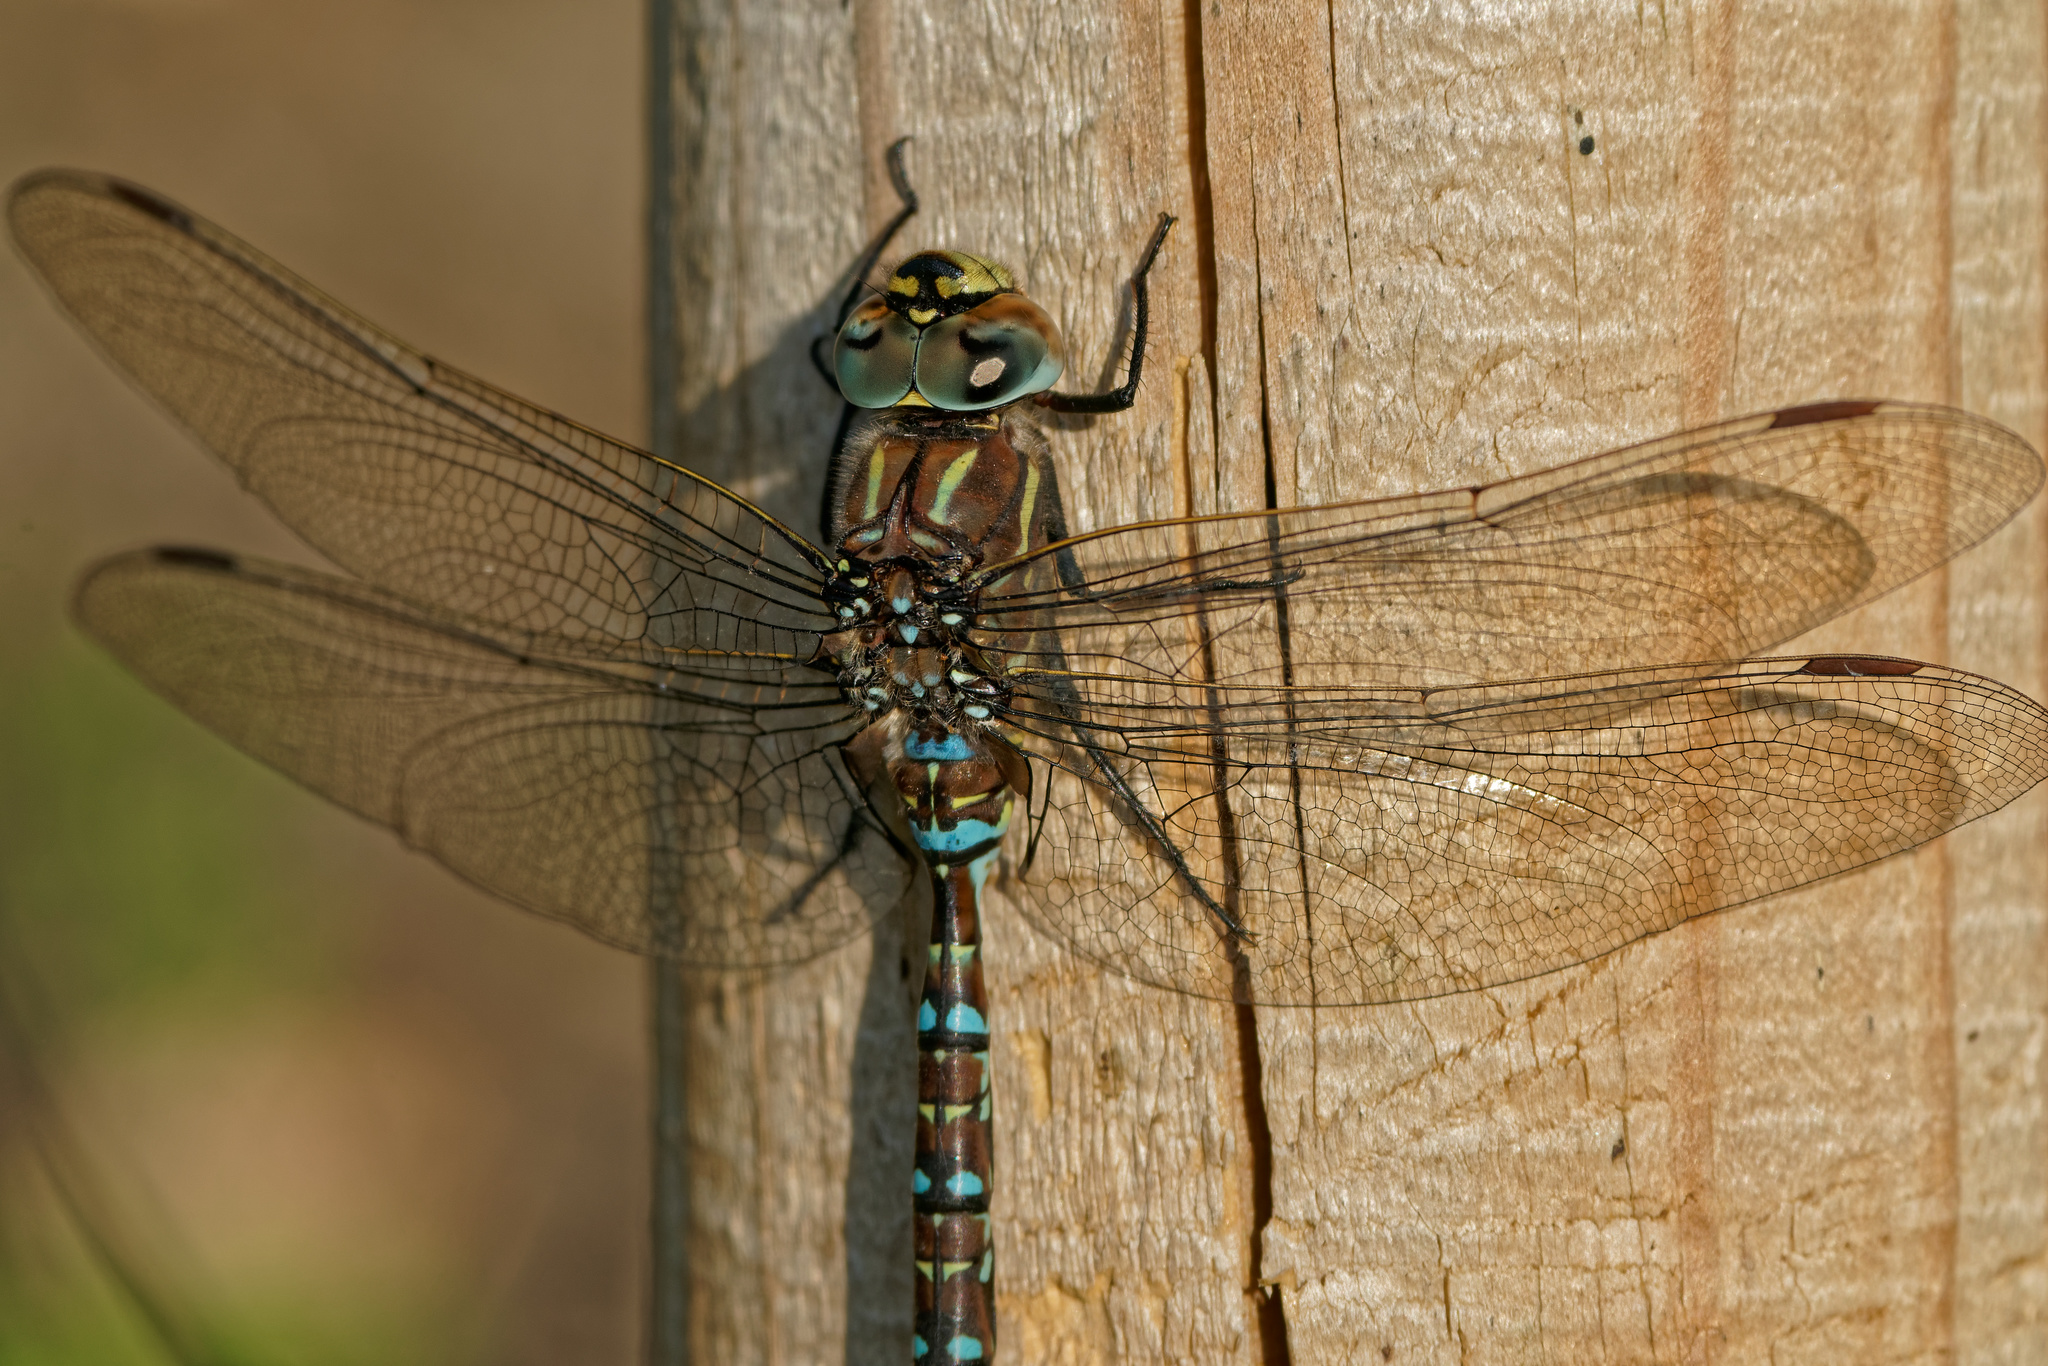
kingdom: Animalia
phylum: Arthropoda
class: Insecta
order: Odonata
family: Aeshnidae
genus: Aeshna
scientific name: Aeshna juncea
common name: Moorland hawker
